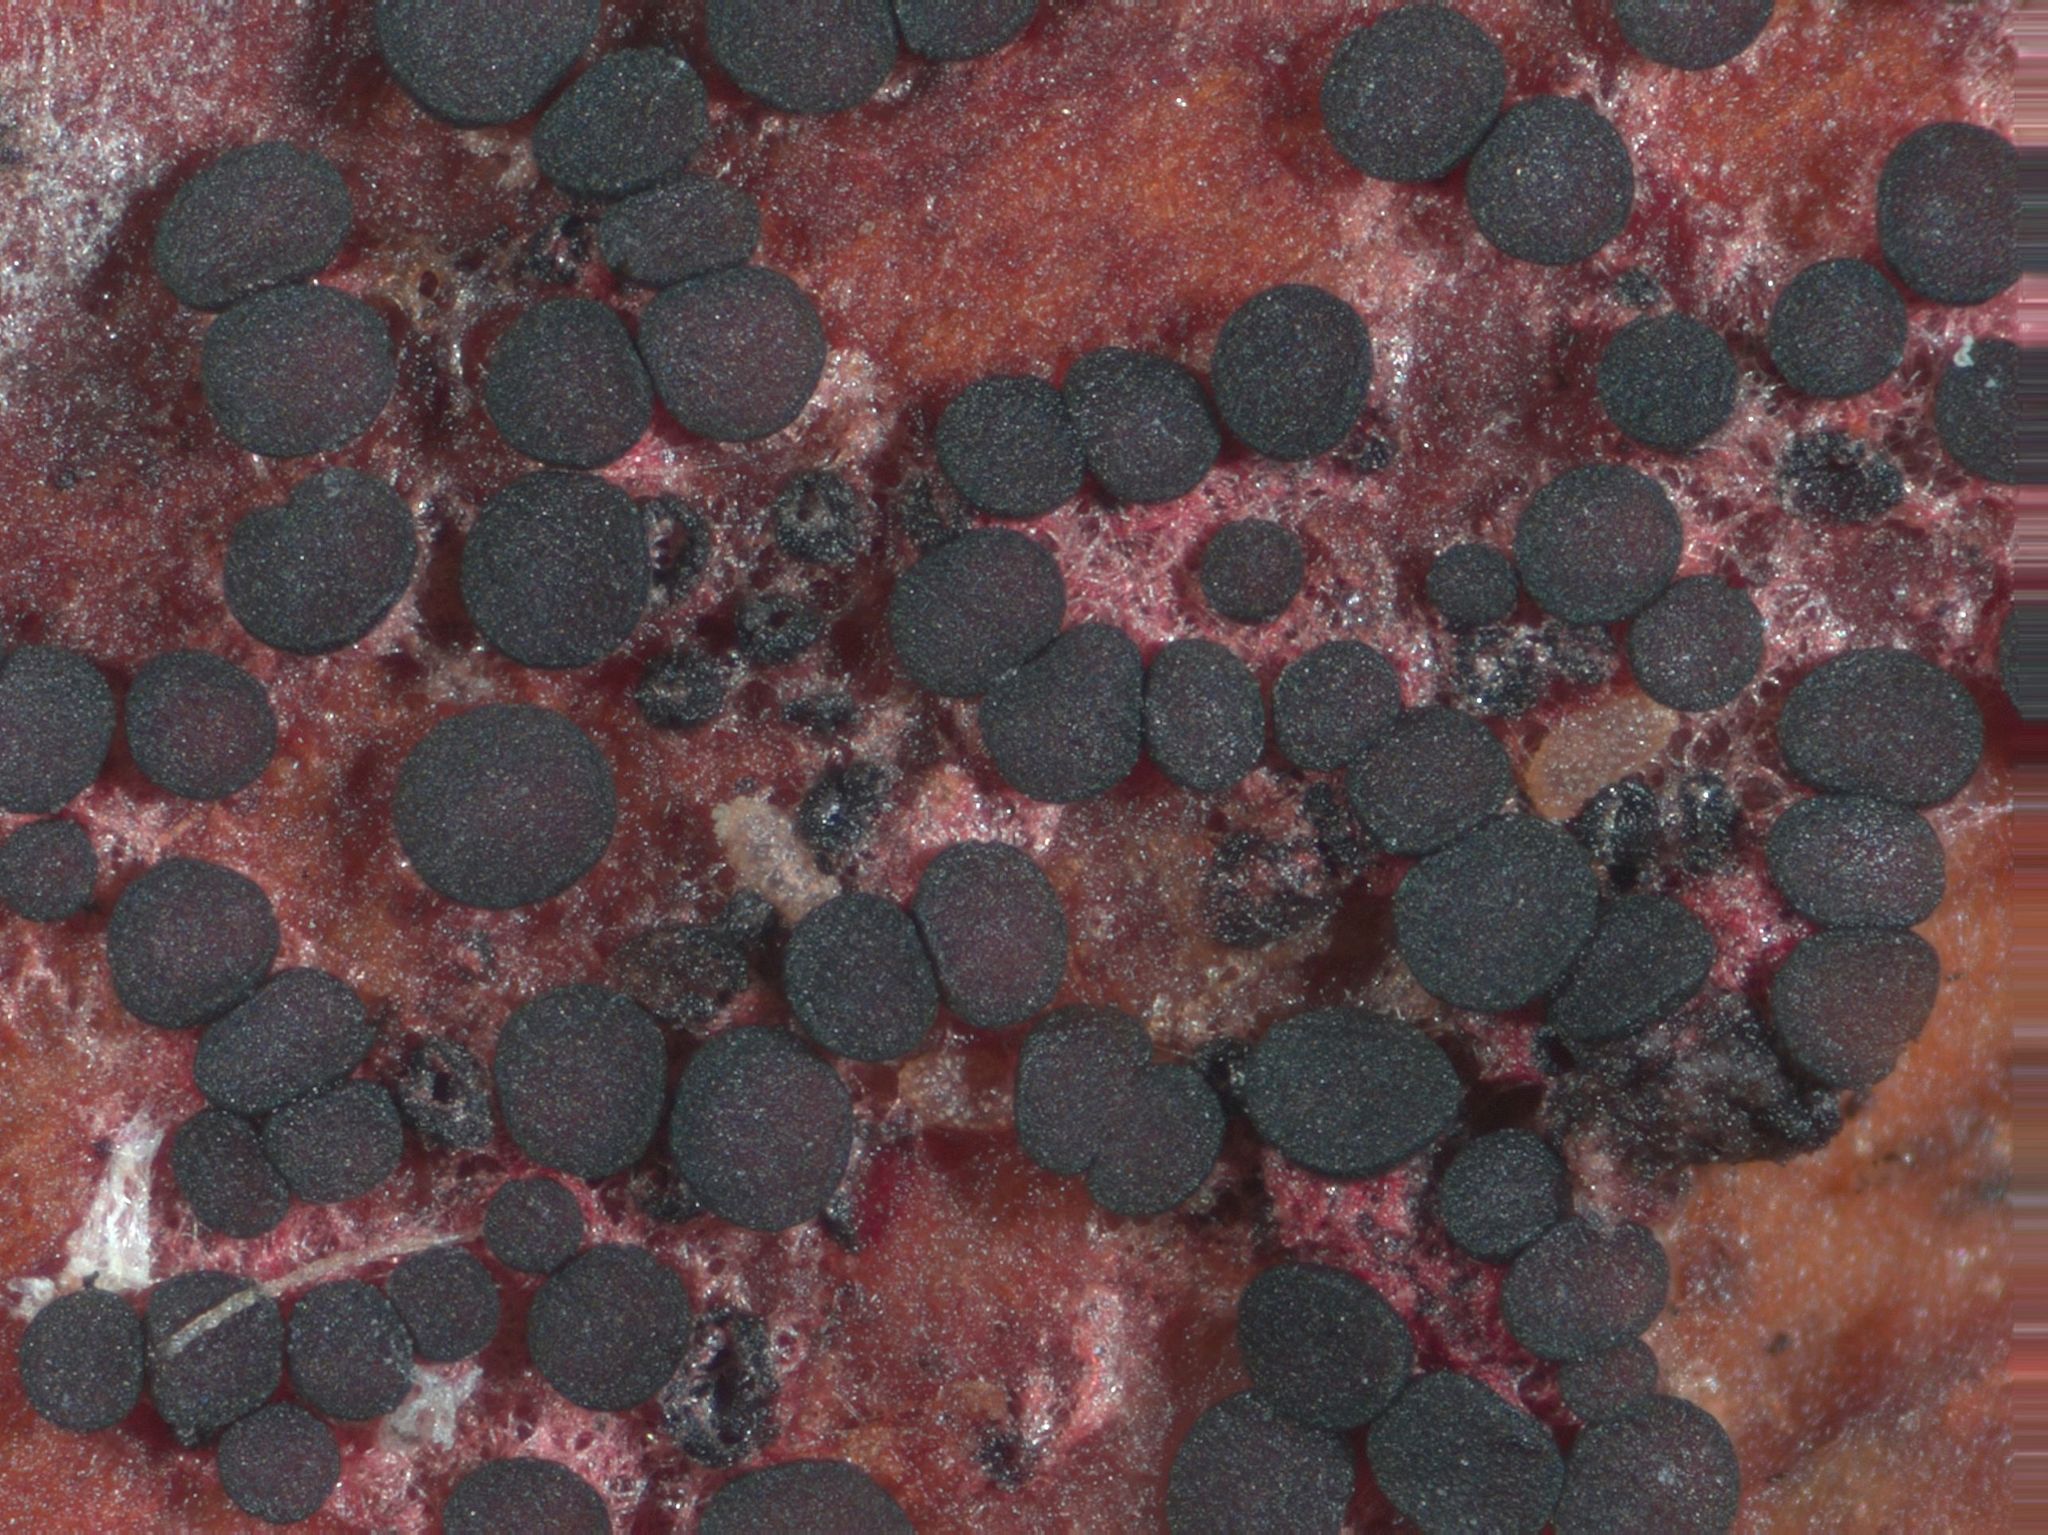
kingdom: Fungi
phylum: Ascomycota
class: Leotiomycetes
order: Helotiales
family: Helotiaceae
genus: Patinellaria
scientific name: Patinellaria sanguinea
